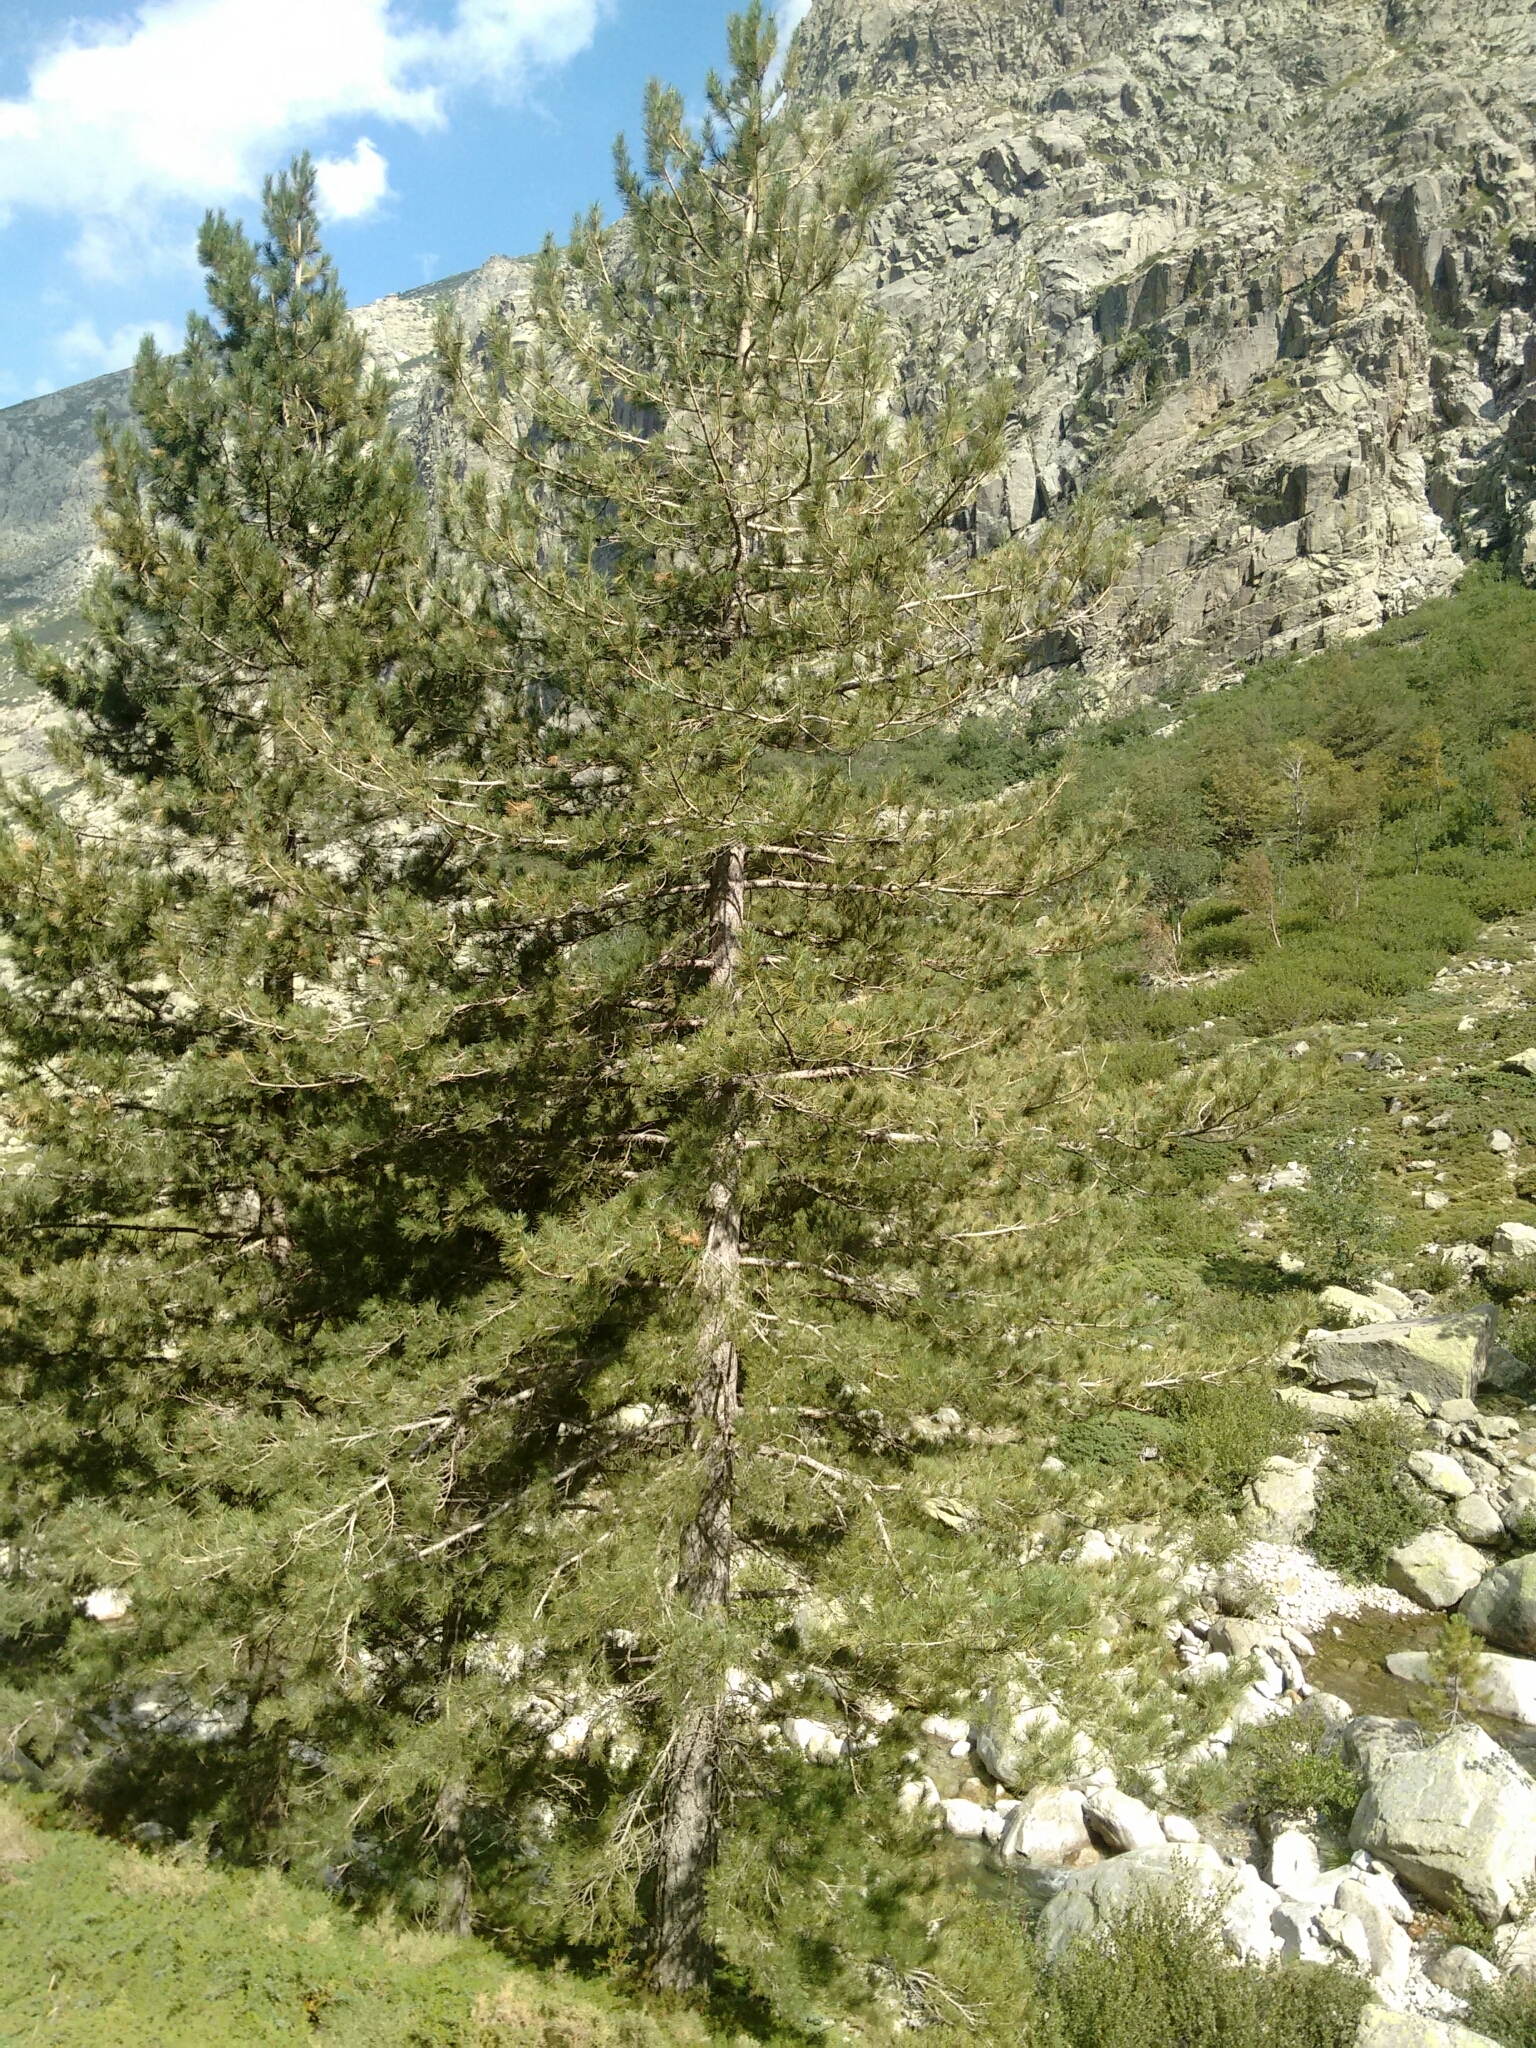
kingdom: Plantae
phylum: Tracheophyta
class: Pinopsida
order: Pinales
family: Pinaceae
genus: Pinus
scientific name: Pinus nigra
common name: Austrian pine
